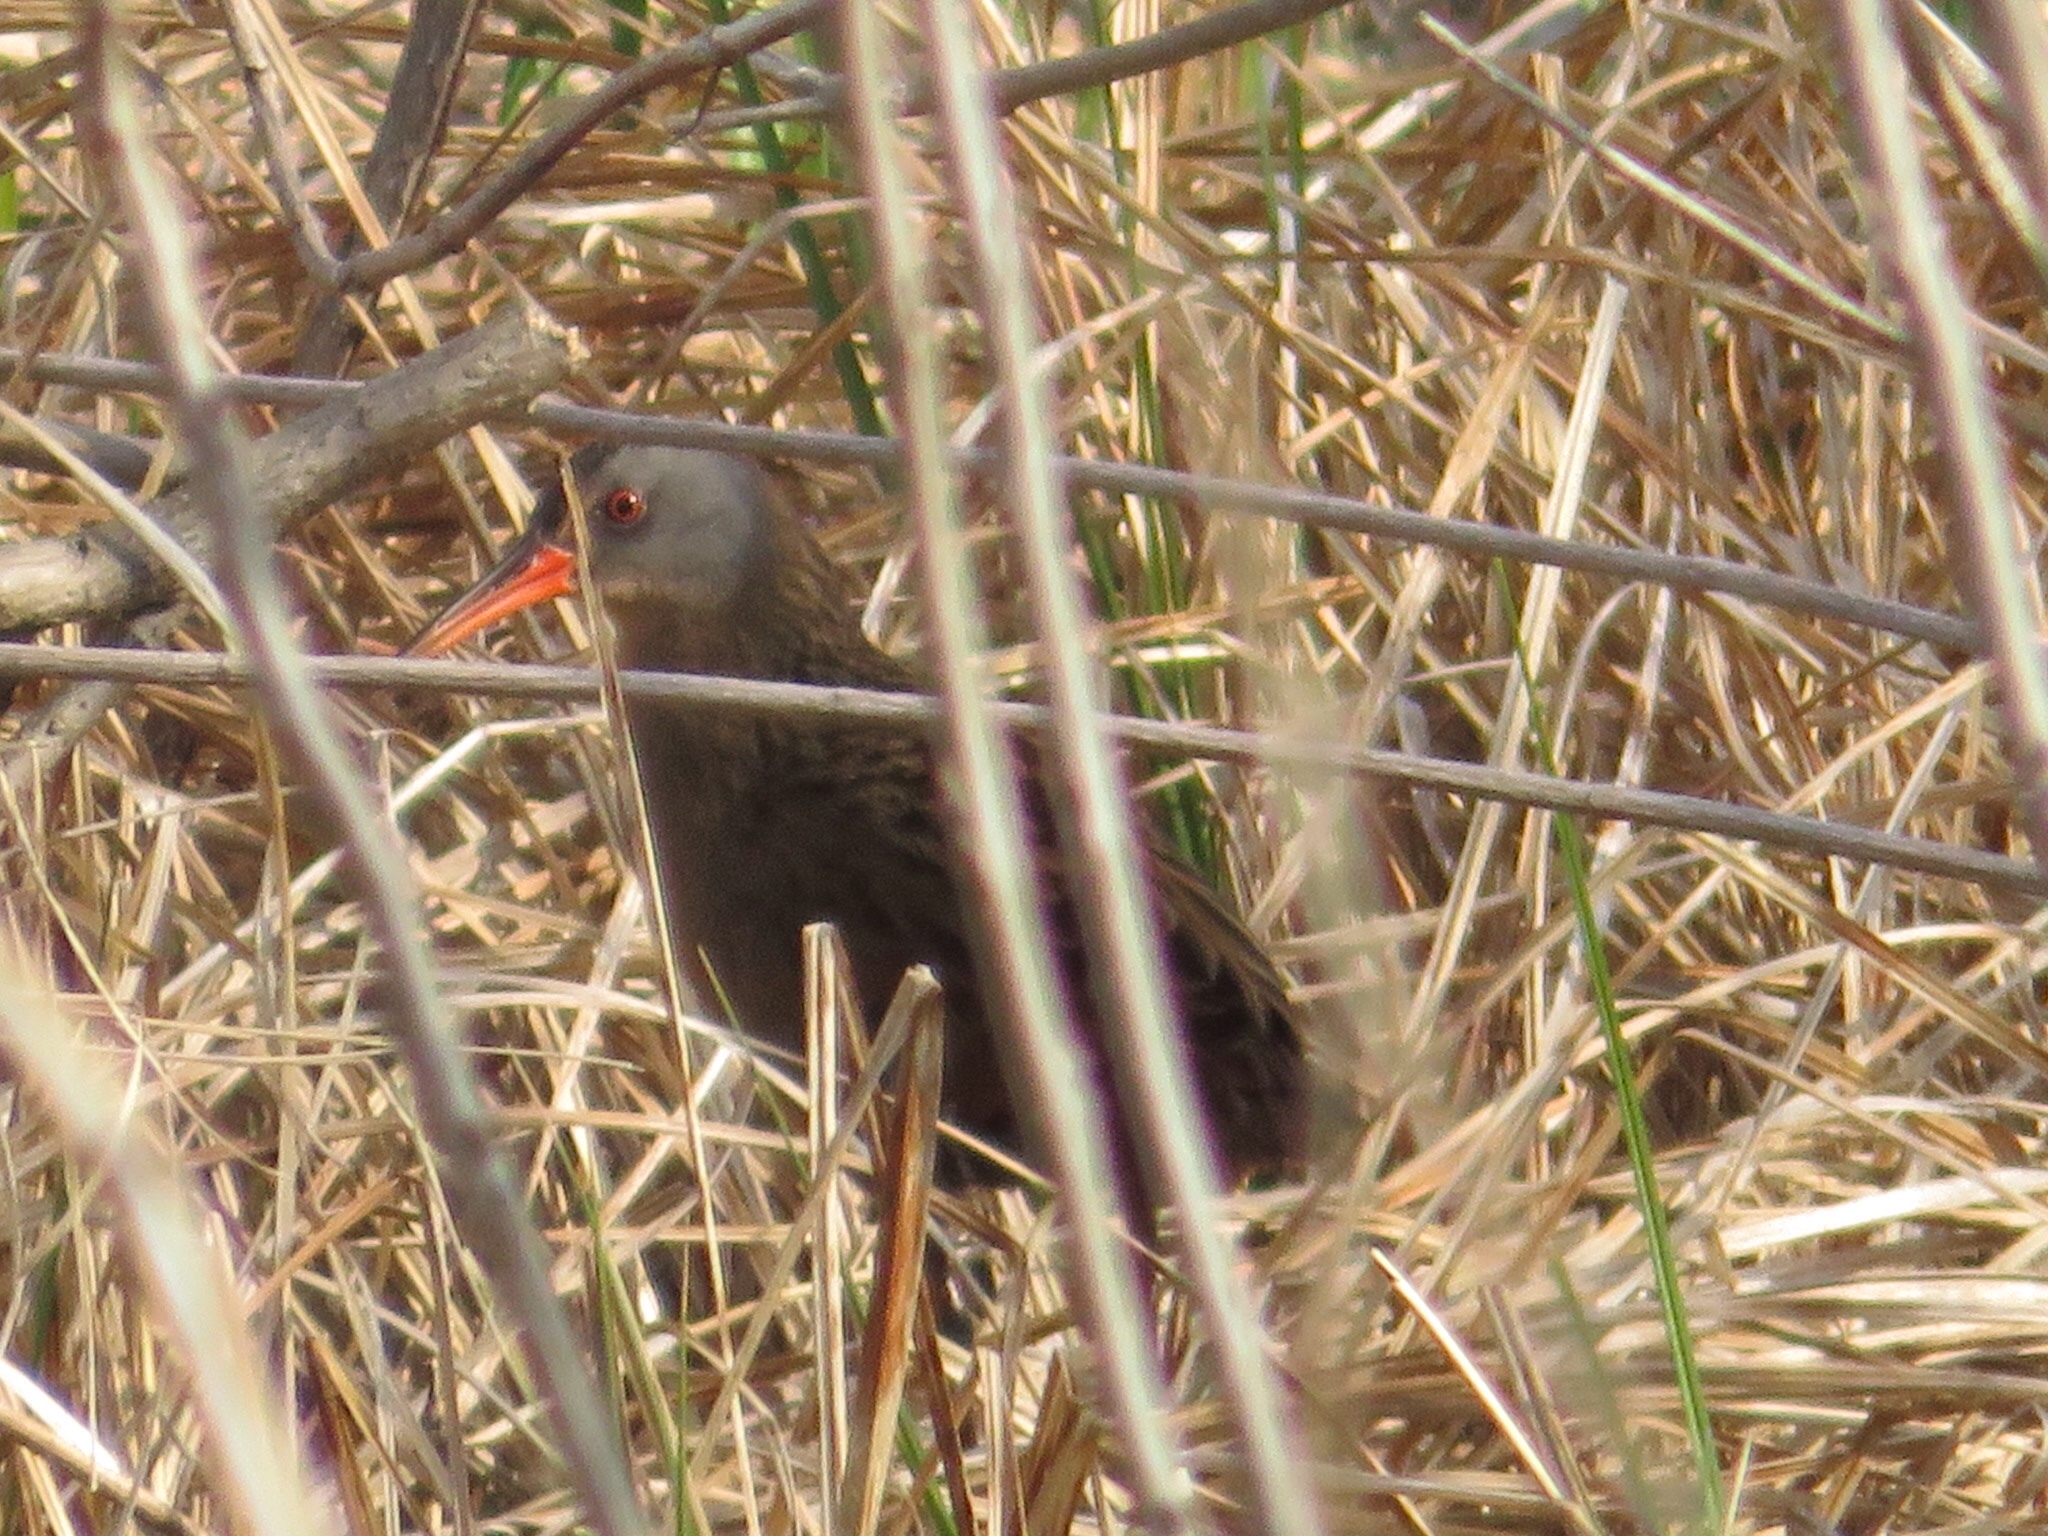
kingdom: Animalia
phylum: Chordata
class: Aves
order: Gruiformes
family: Rallidae
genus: Rallus
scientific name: Rallus limicola
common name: Virginia rail
